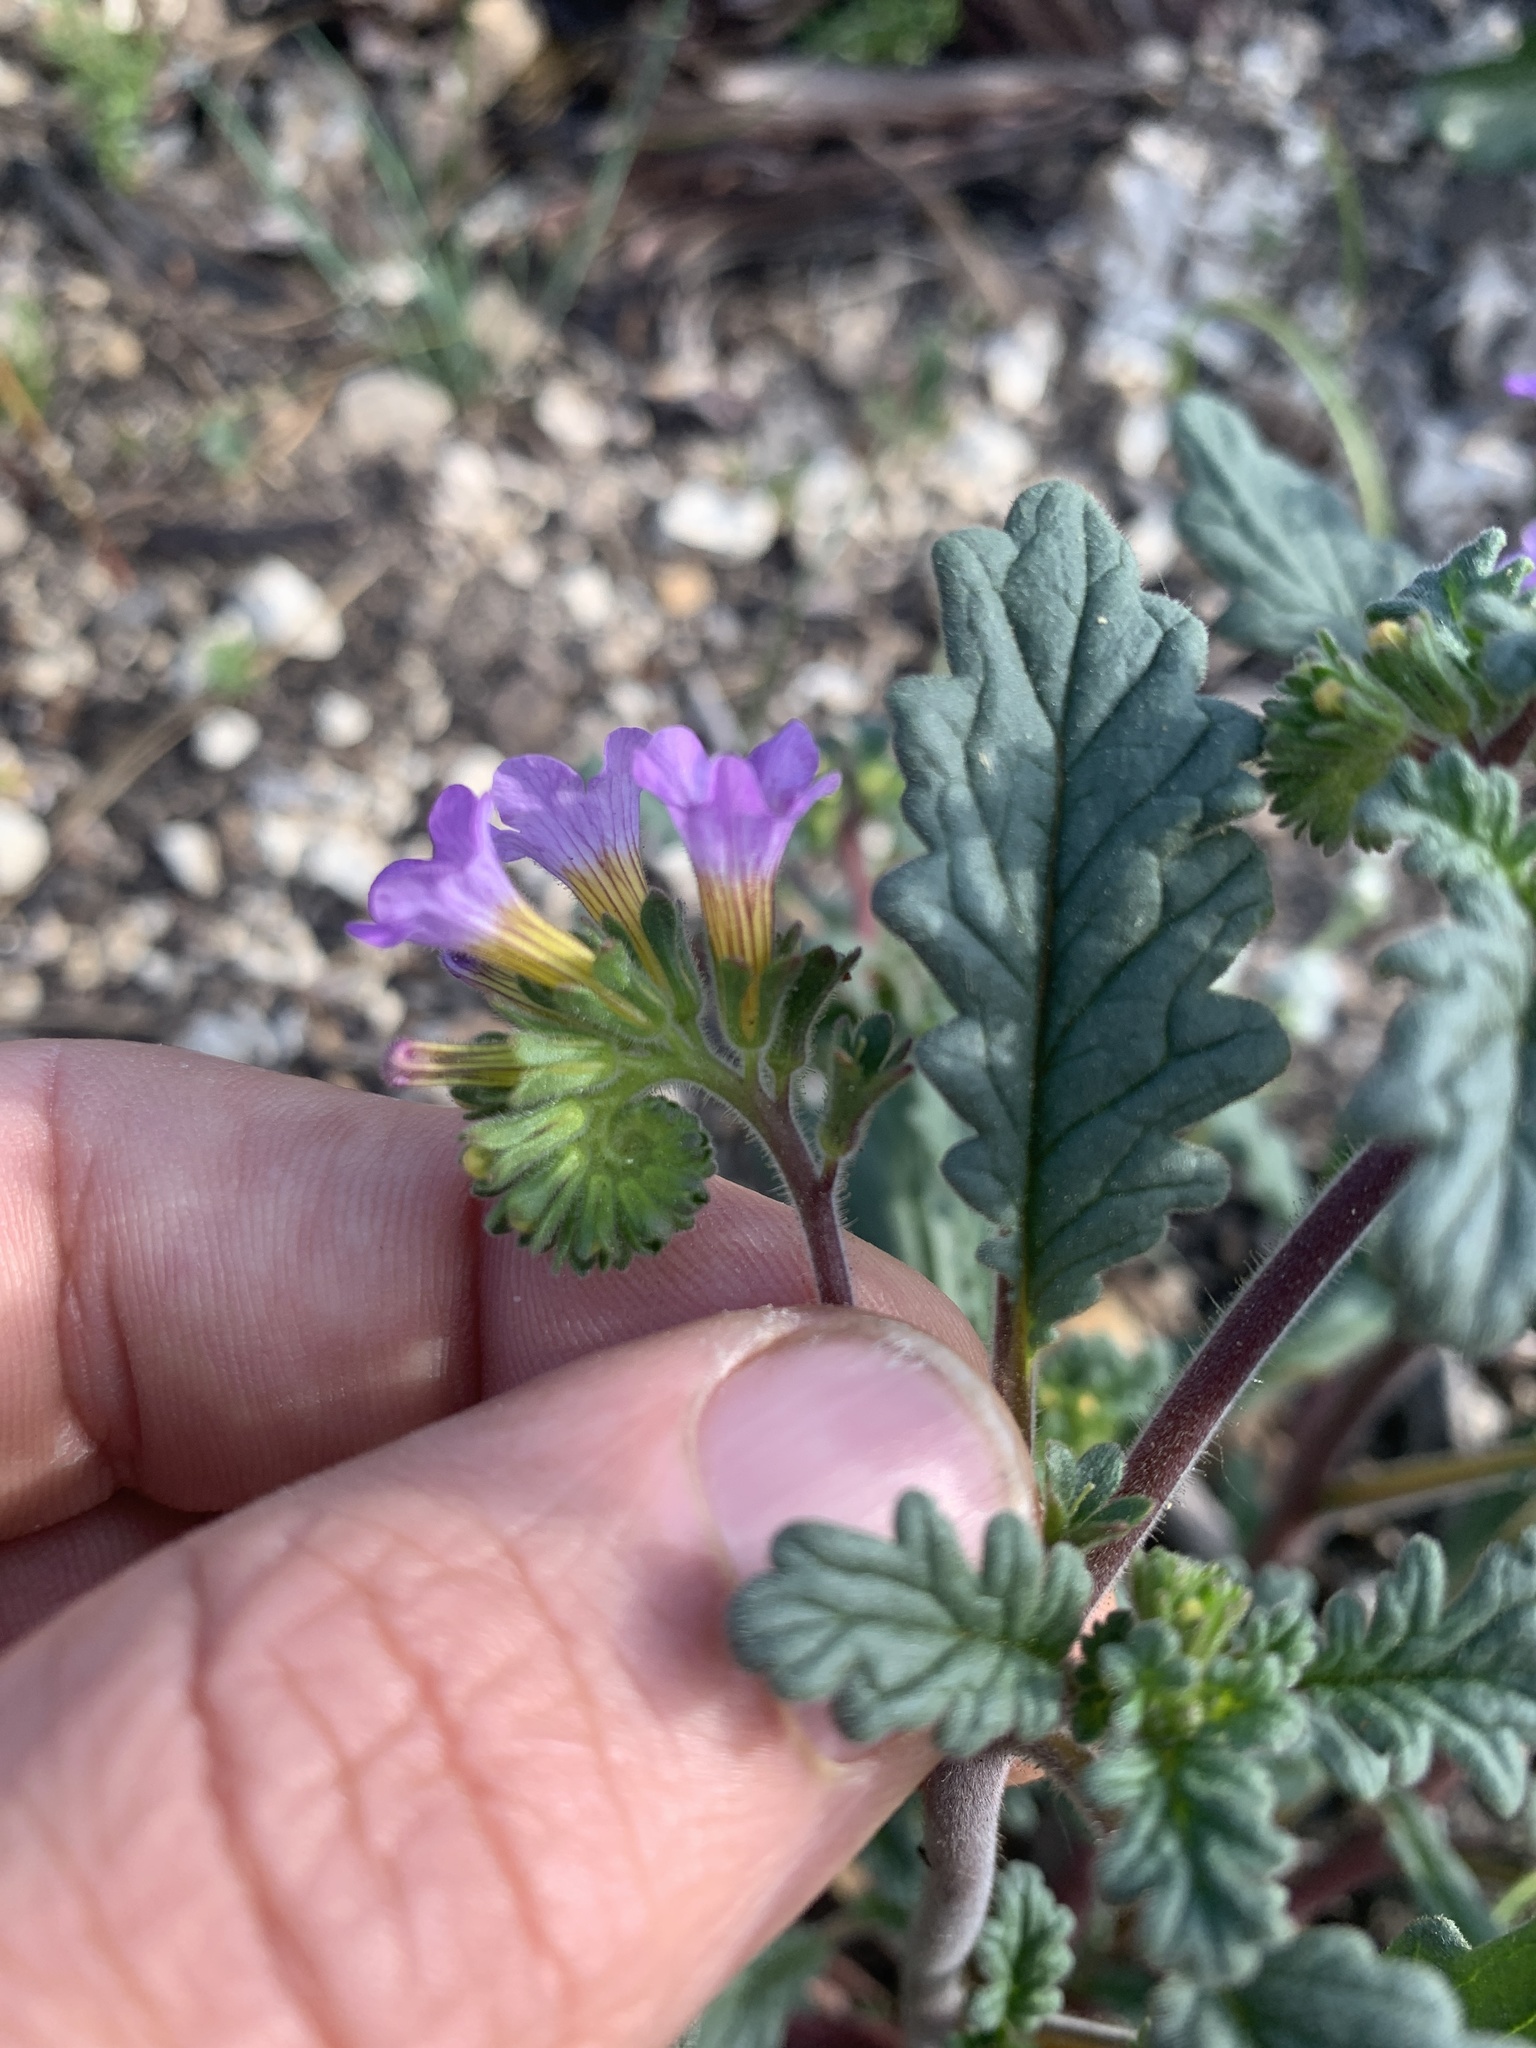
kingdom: Plantae
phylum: Tracheophyta
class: Magnoliopsida
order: Boraginales
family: Hydrophyllaceae
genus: Phacelia
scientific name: Phacelia suaveolens
